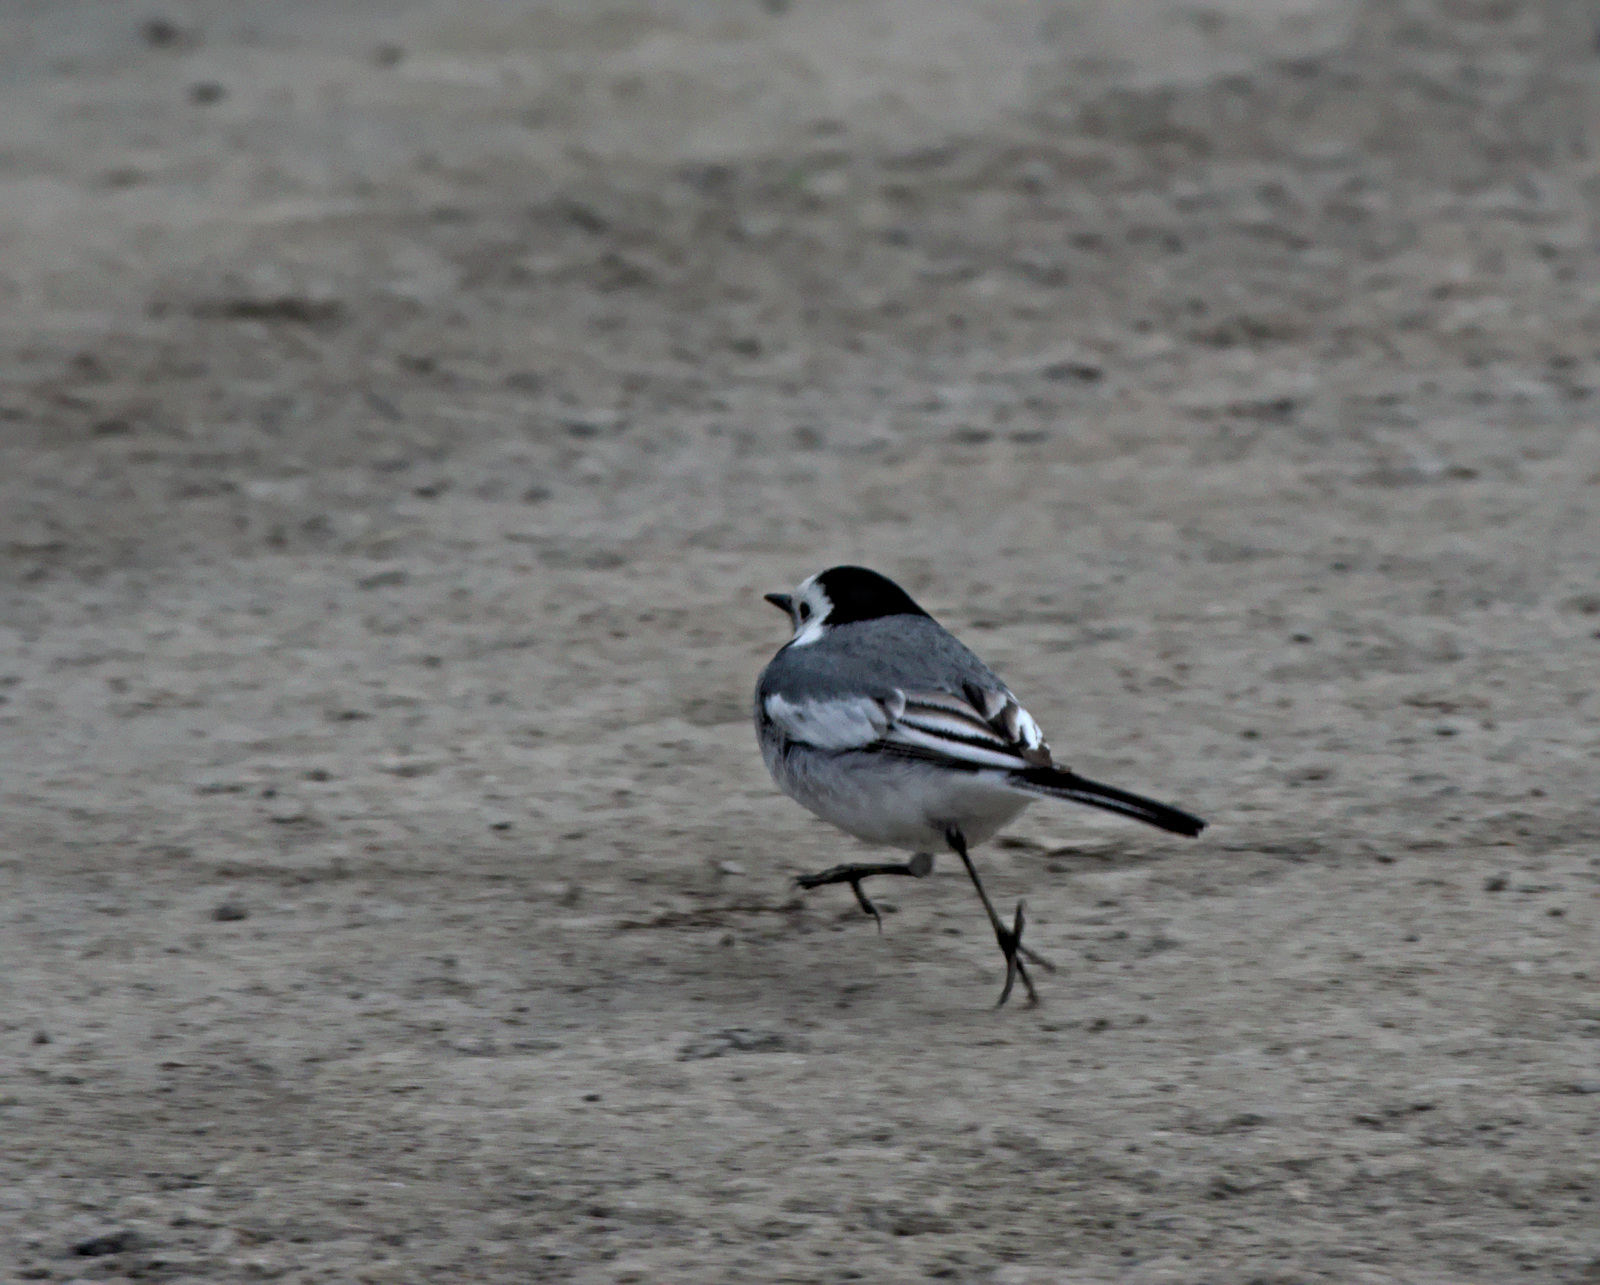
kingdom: Animalia
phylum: Chordata
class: Aves
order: Passeriformes
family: Motacillidae
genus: Motacilla
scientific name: Motacilla alba
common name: White wagtail
